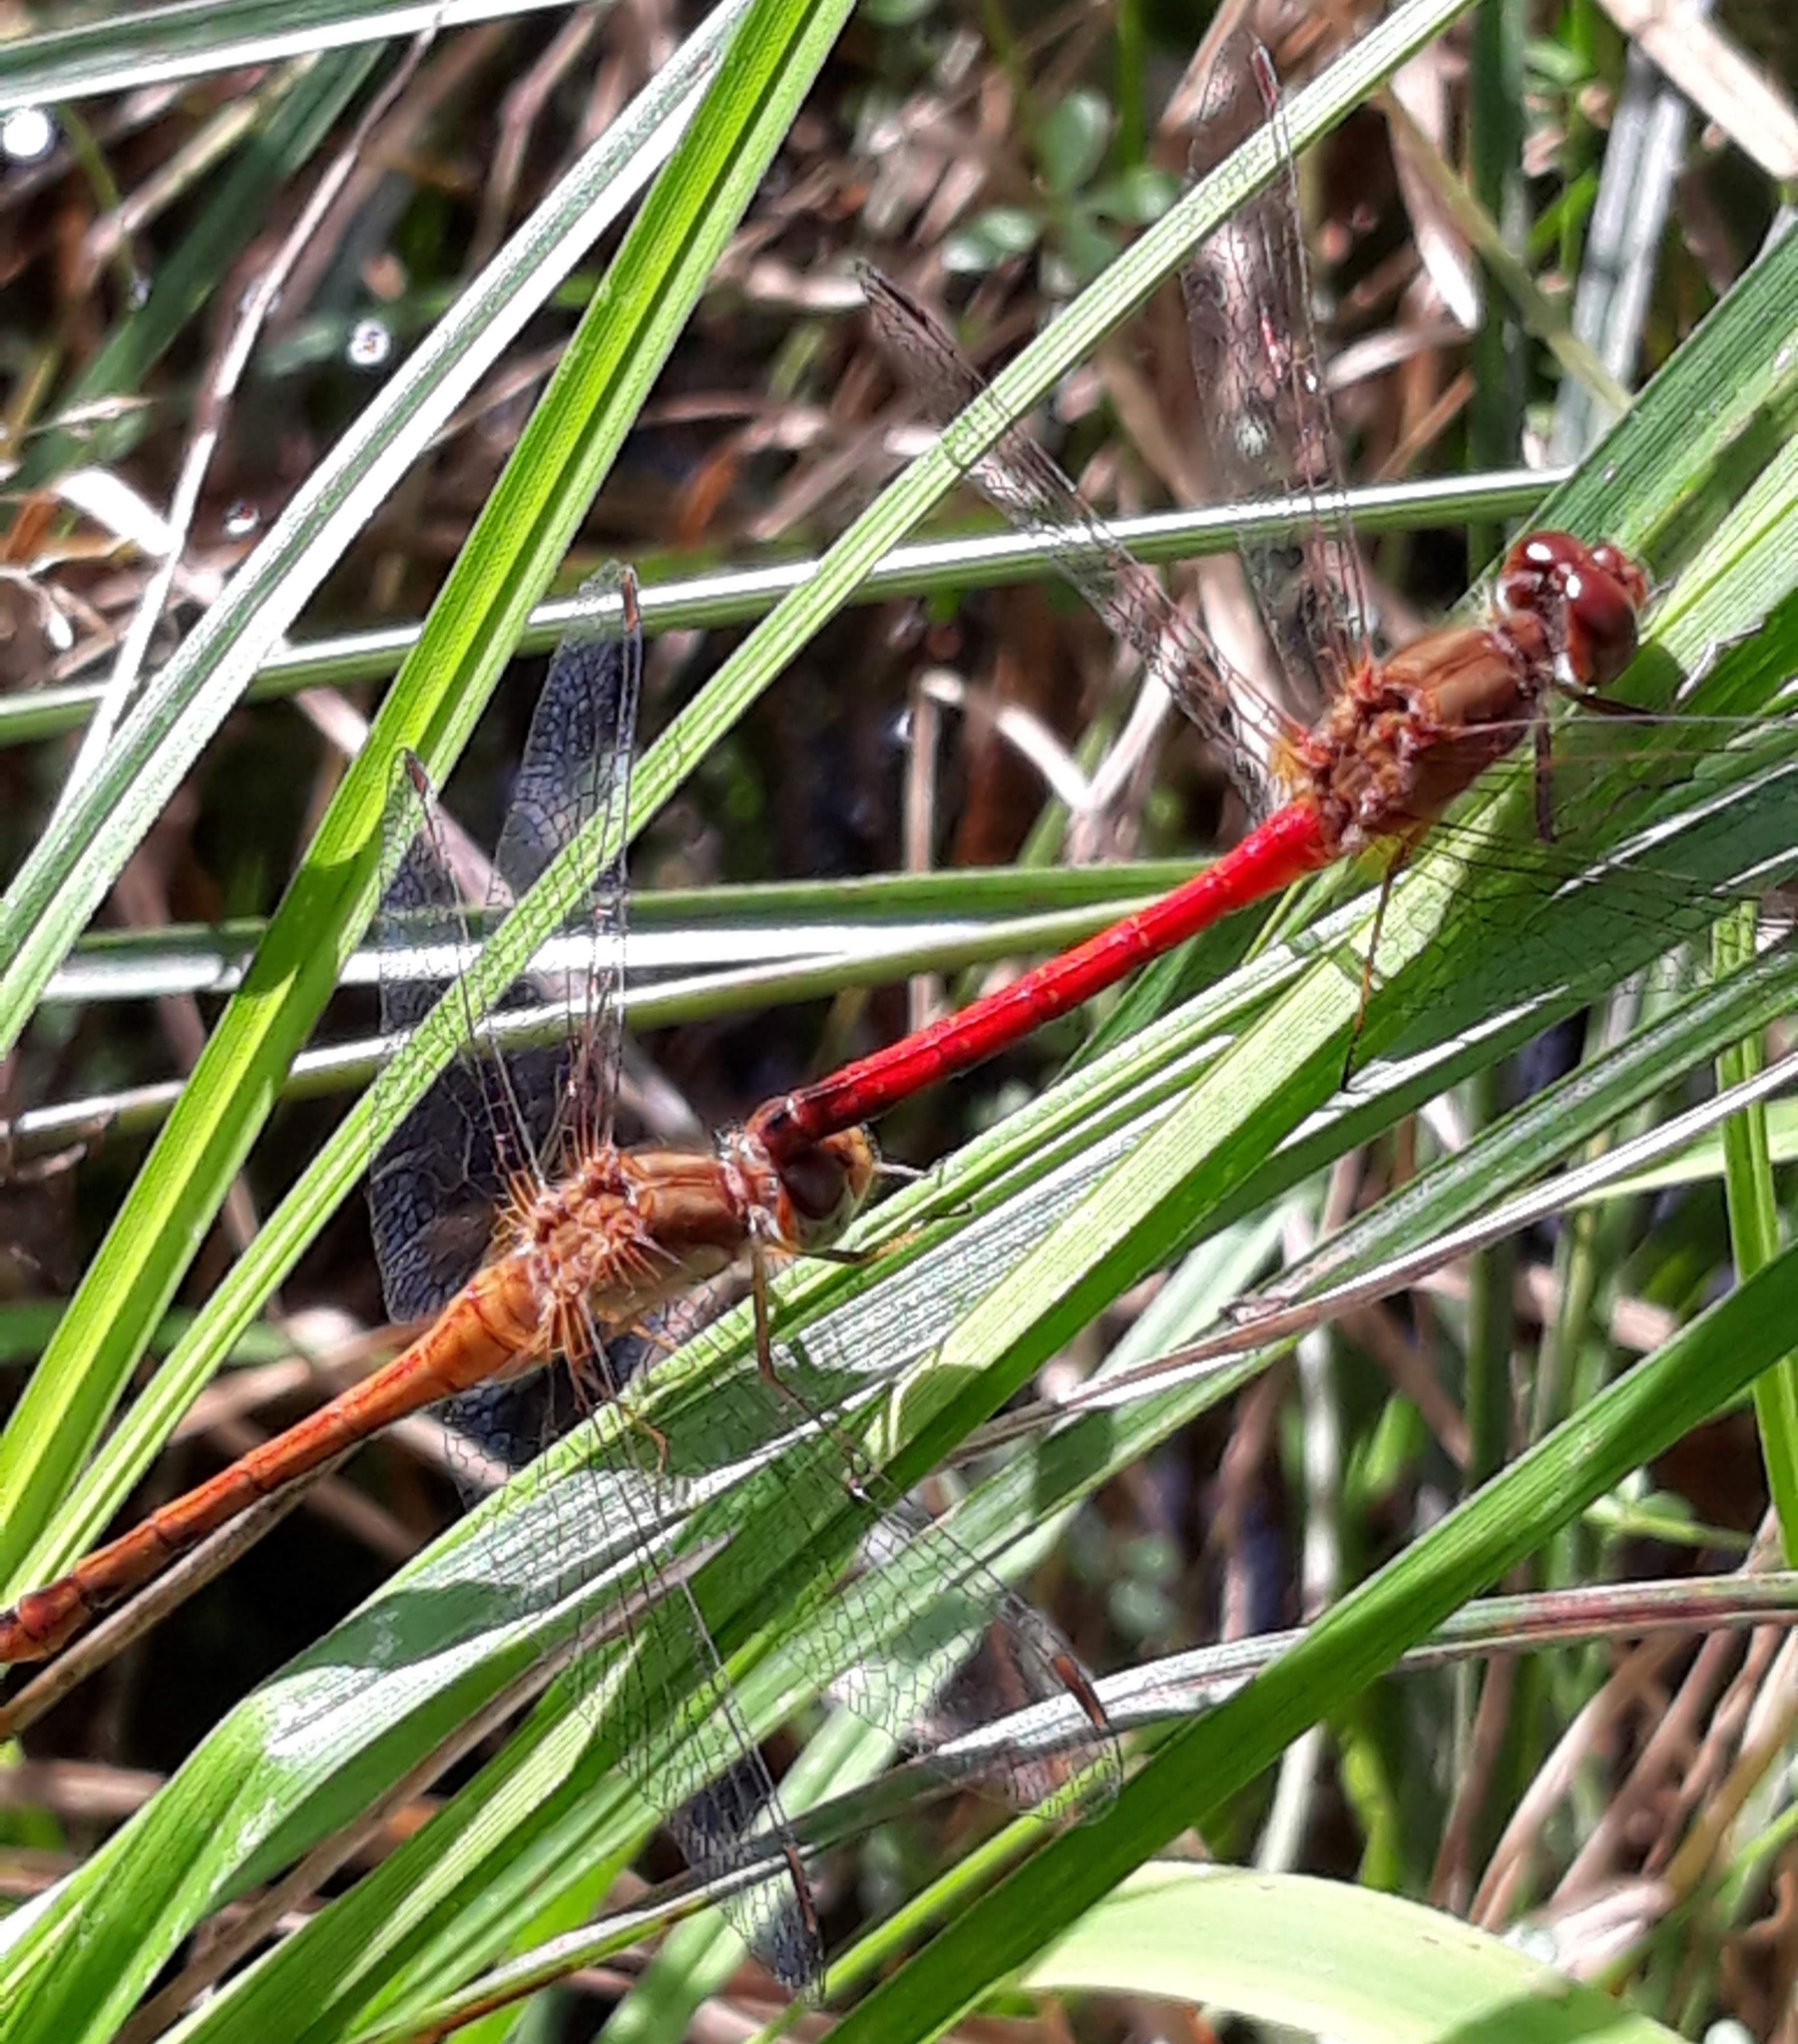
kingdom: Animalia
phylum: Arthropoda
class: Insecta
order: Odonata
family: Libellulidae
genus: Sympetrum
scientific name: Sympetrum vicinum
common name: Autumn meadowhawk
